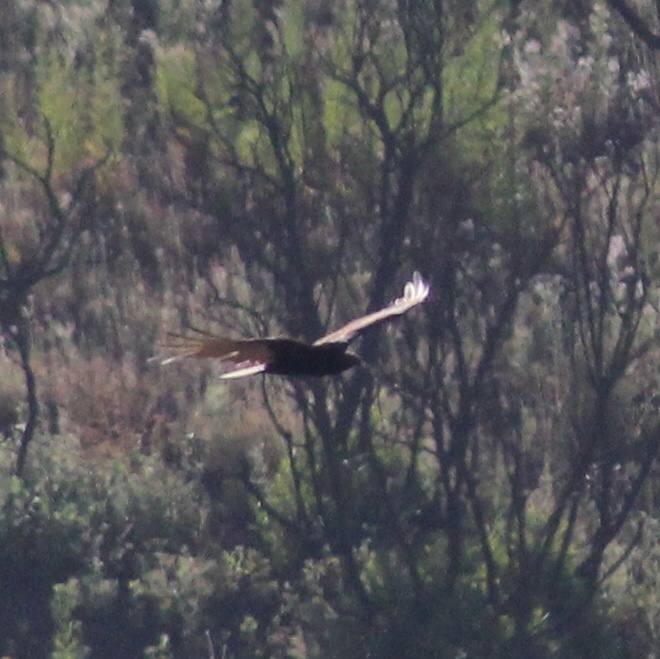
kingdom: Animalia
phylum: Chordata
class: Aves
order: Accipitriformes
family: Cathartidae
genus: Cathartes
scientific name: Cathartes aura
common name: Turkey vulture
